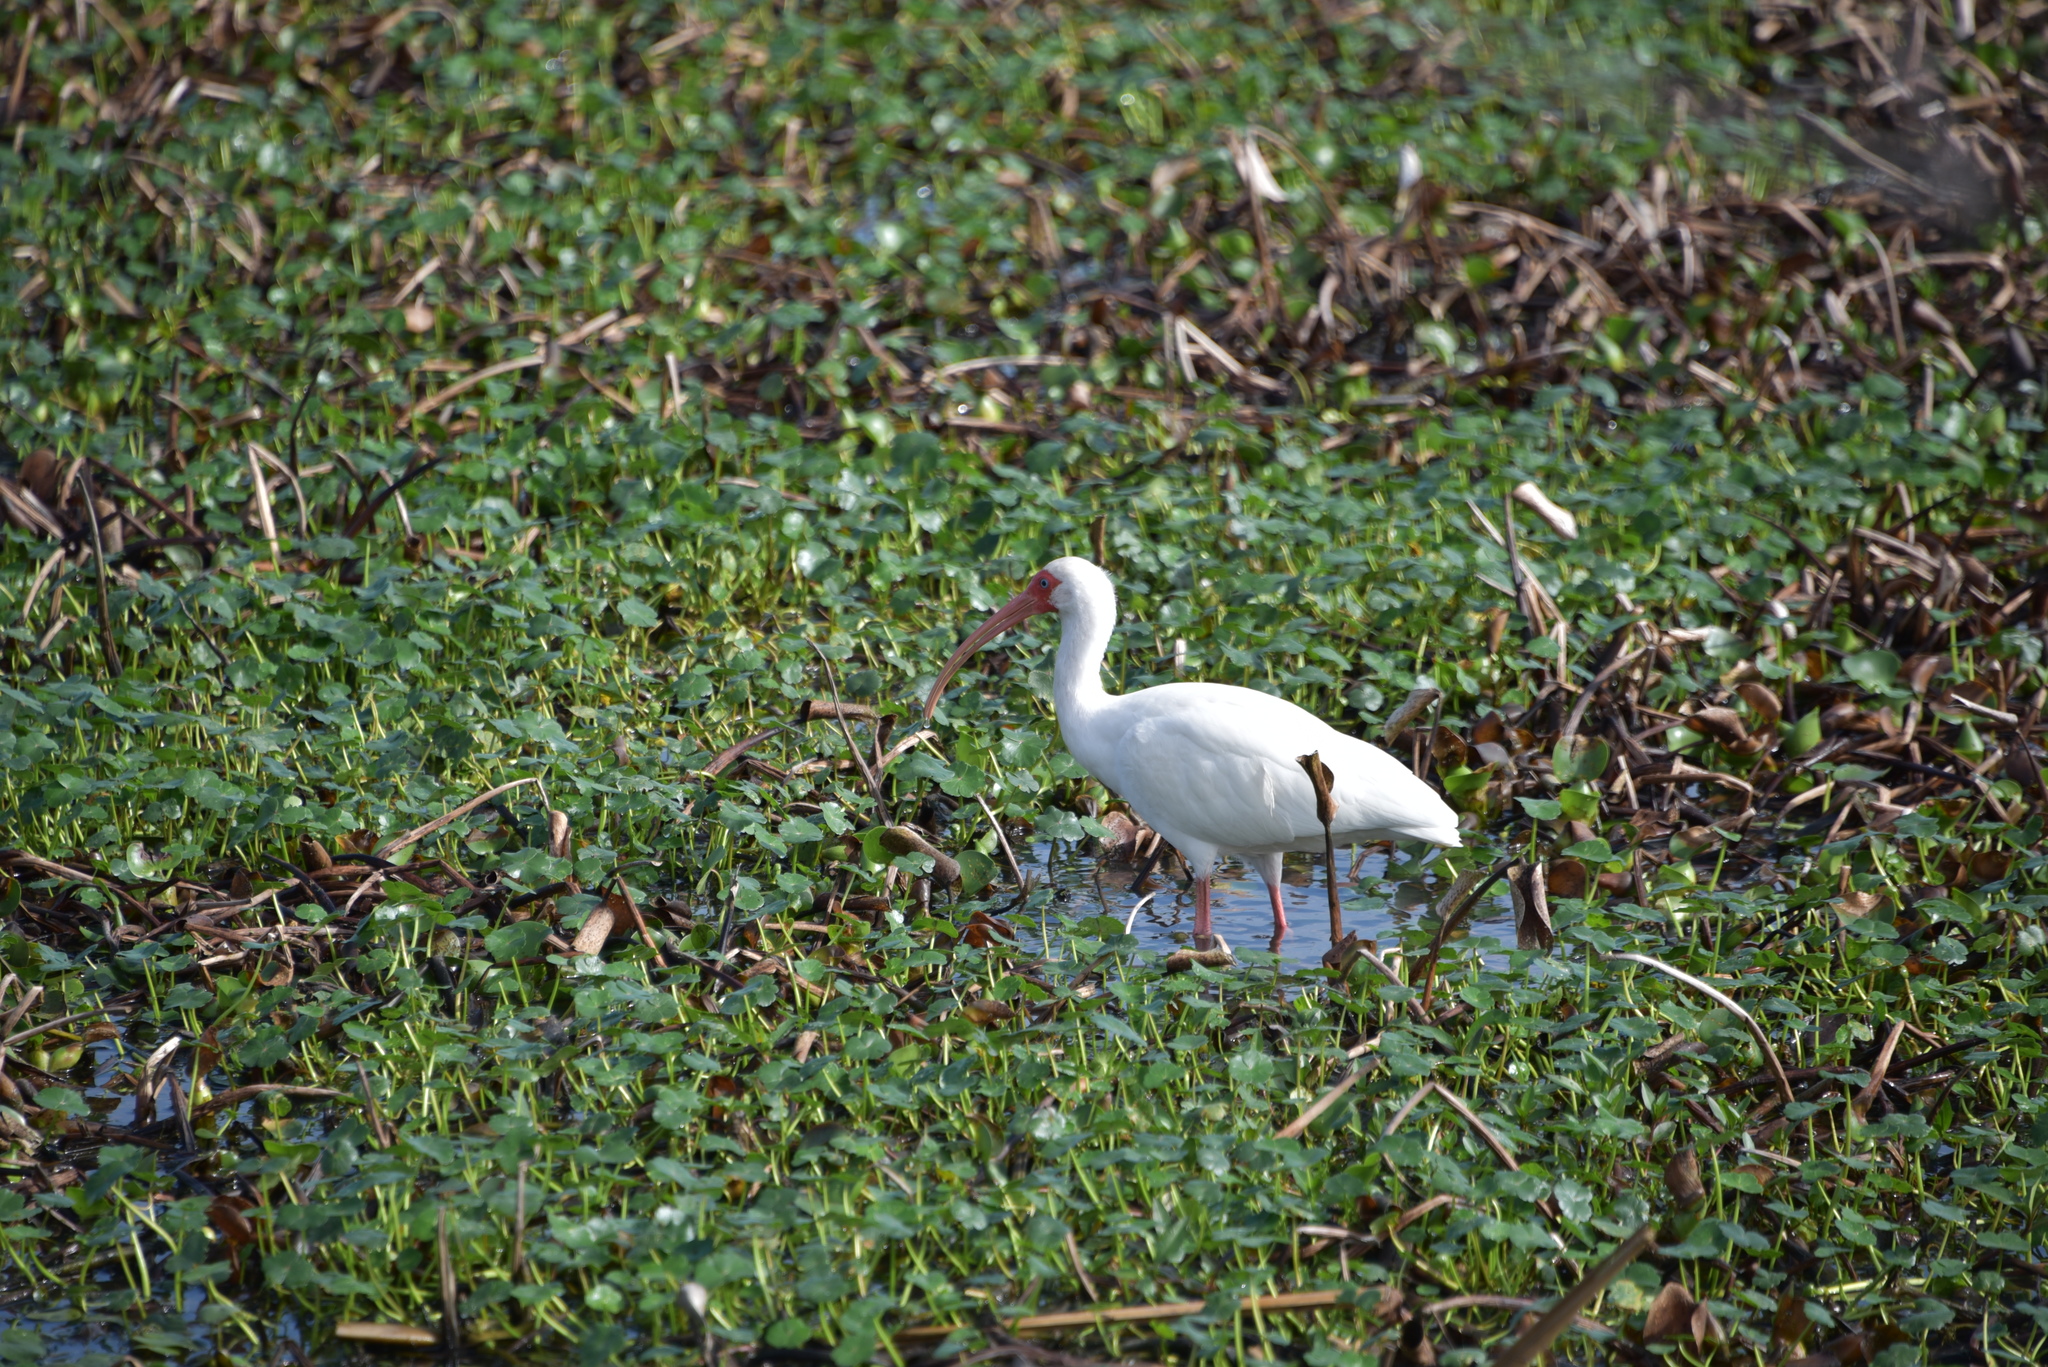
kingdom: Animalia
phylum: Chordata
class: Aves
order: Pelecaniformes
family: Threskiornithidae
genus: Eudocimus
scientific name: Eudocimus albus
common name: White ibis
